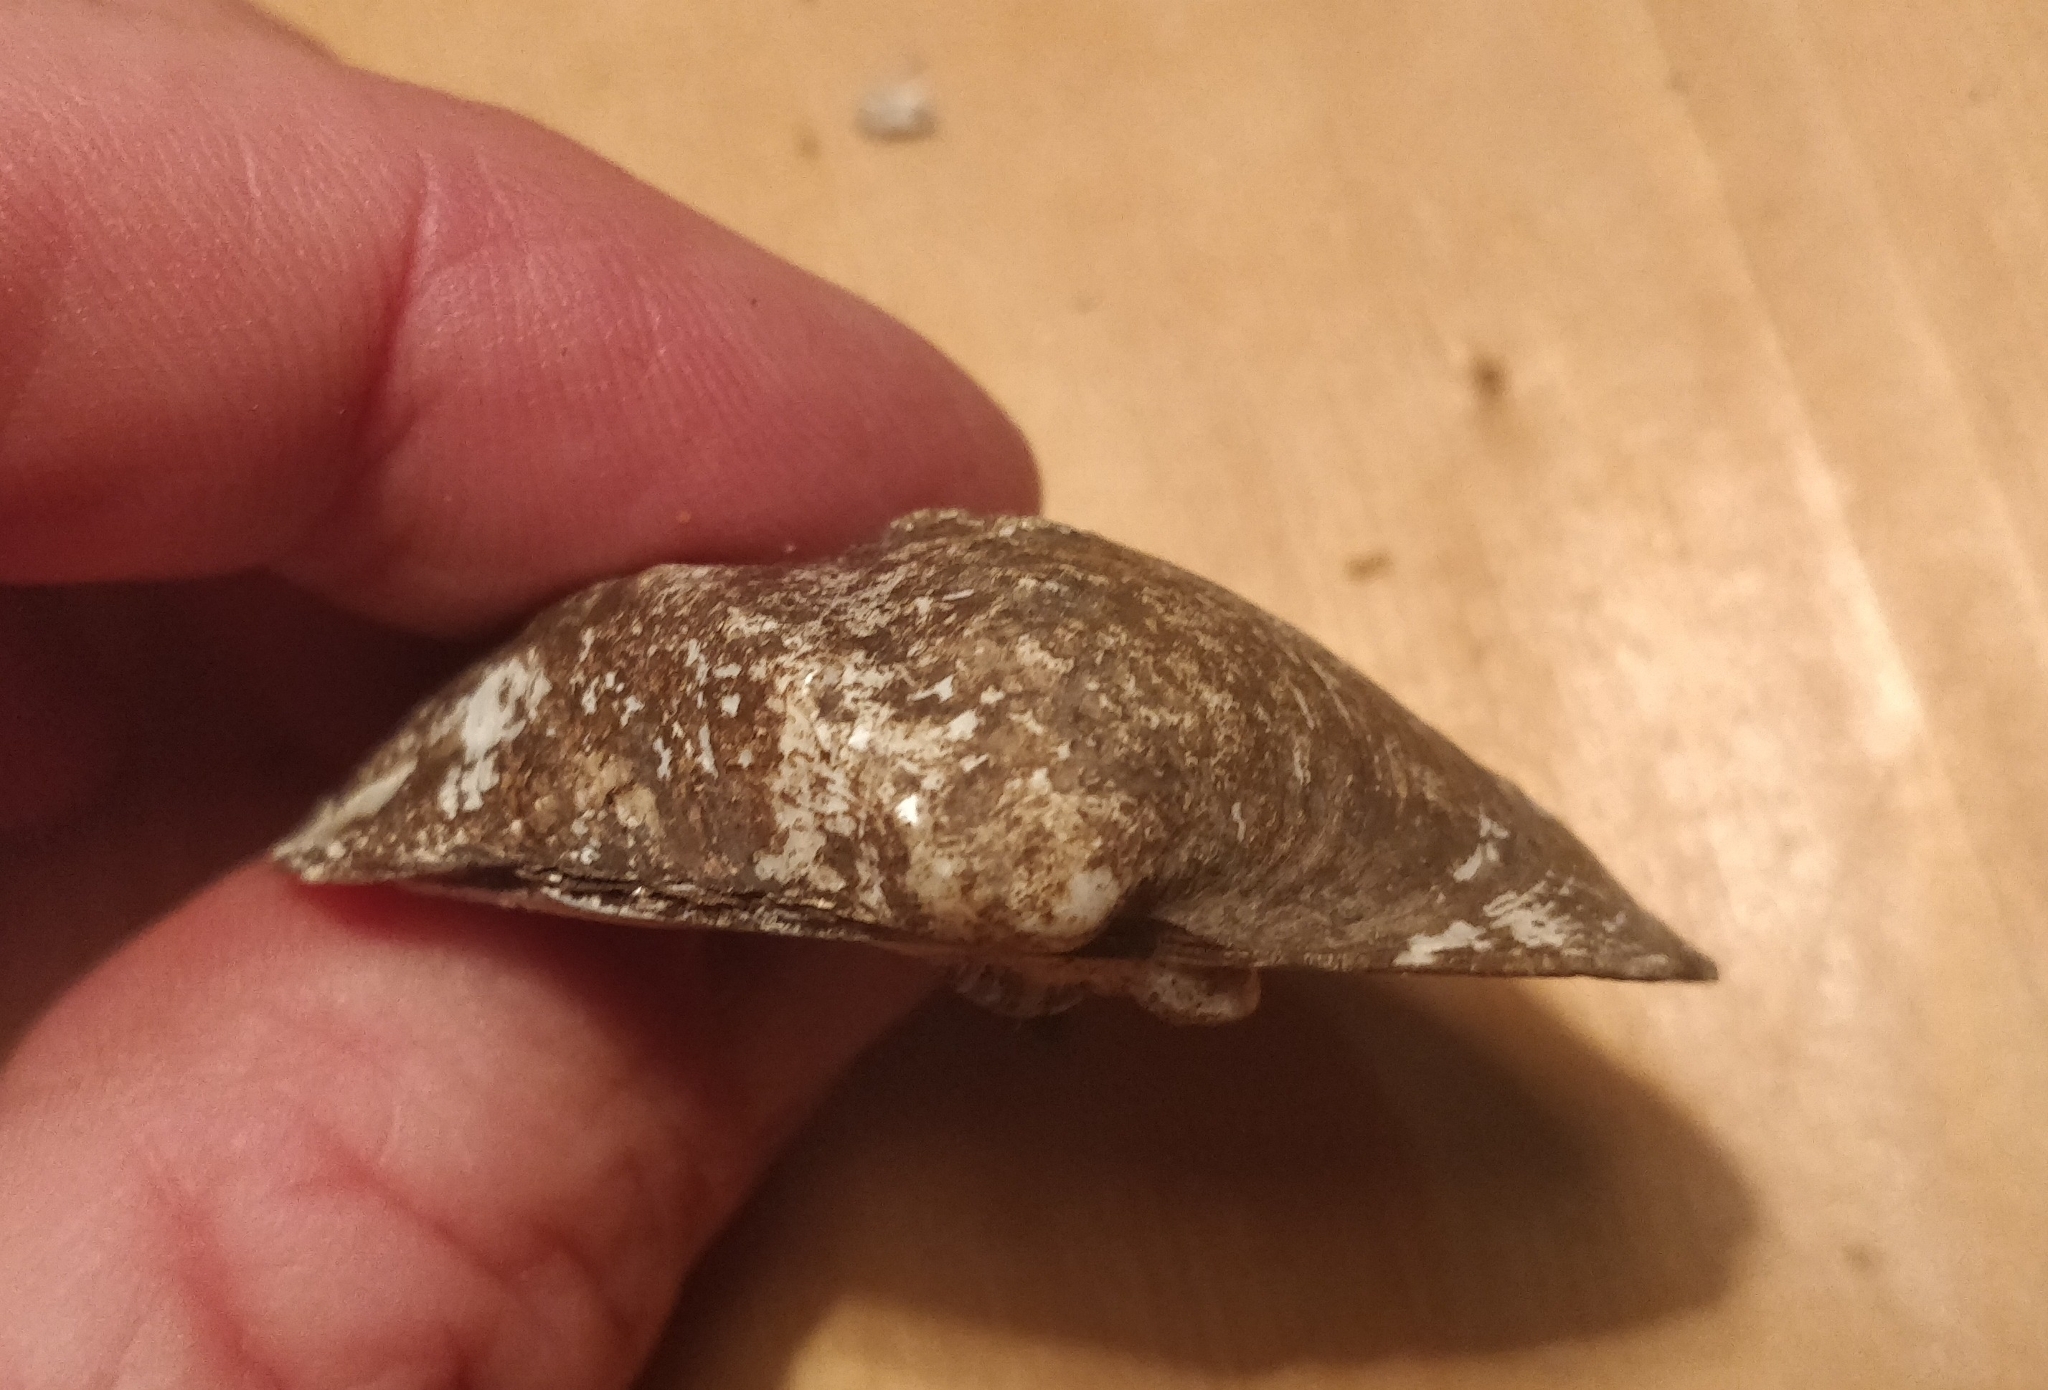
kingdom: Animalia
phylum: Mollusca
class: Bivalvia
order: Unionida
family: Unionidae
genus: Quadrula
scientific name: Quadrula quadrula
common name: Mapleleaf
